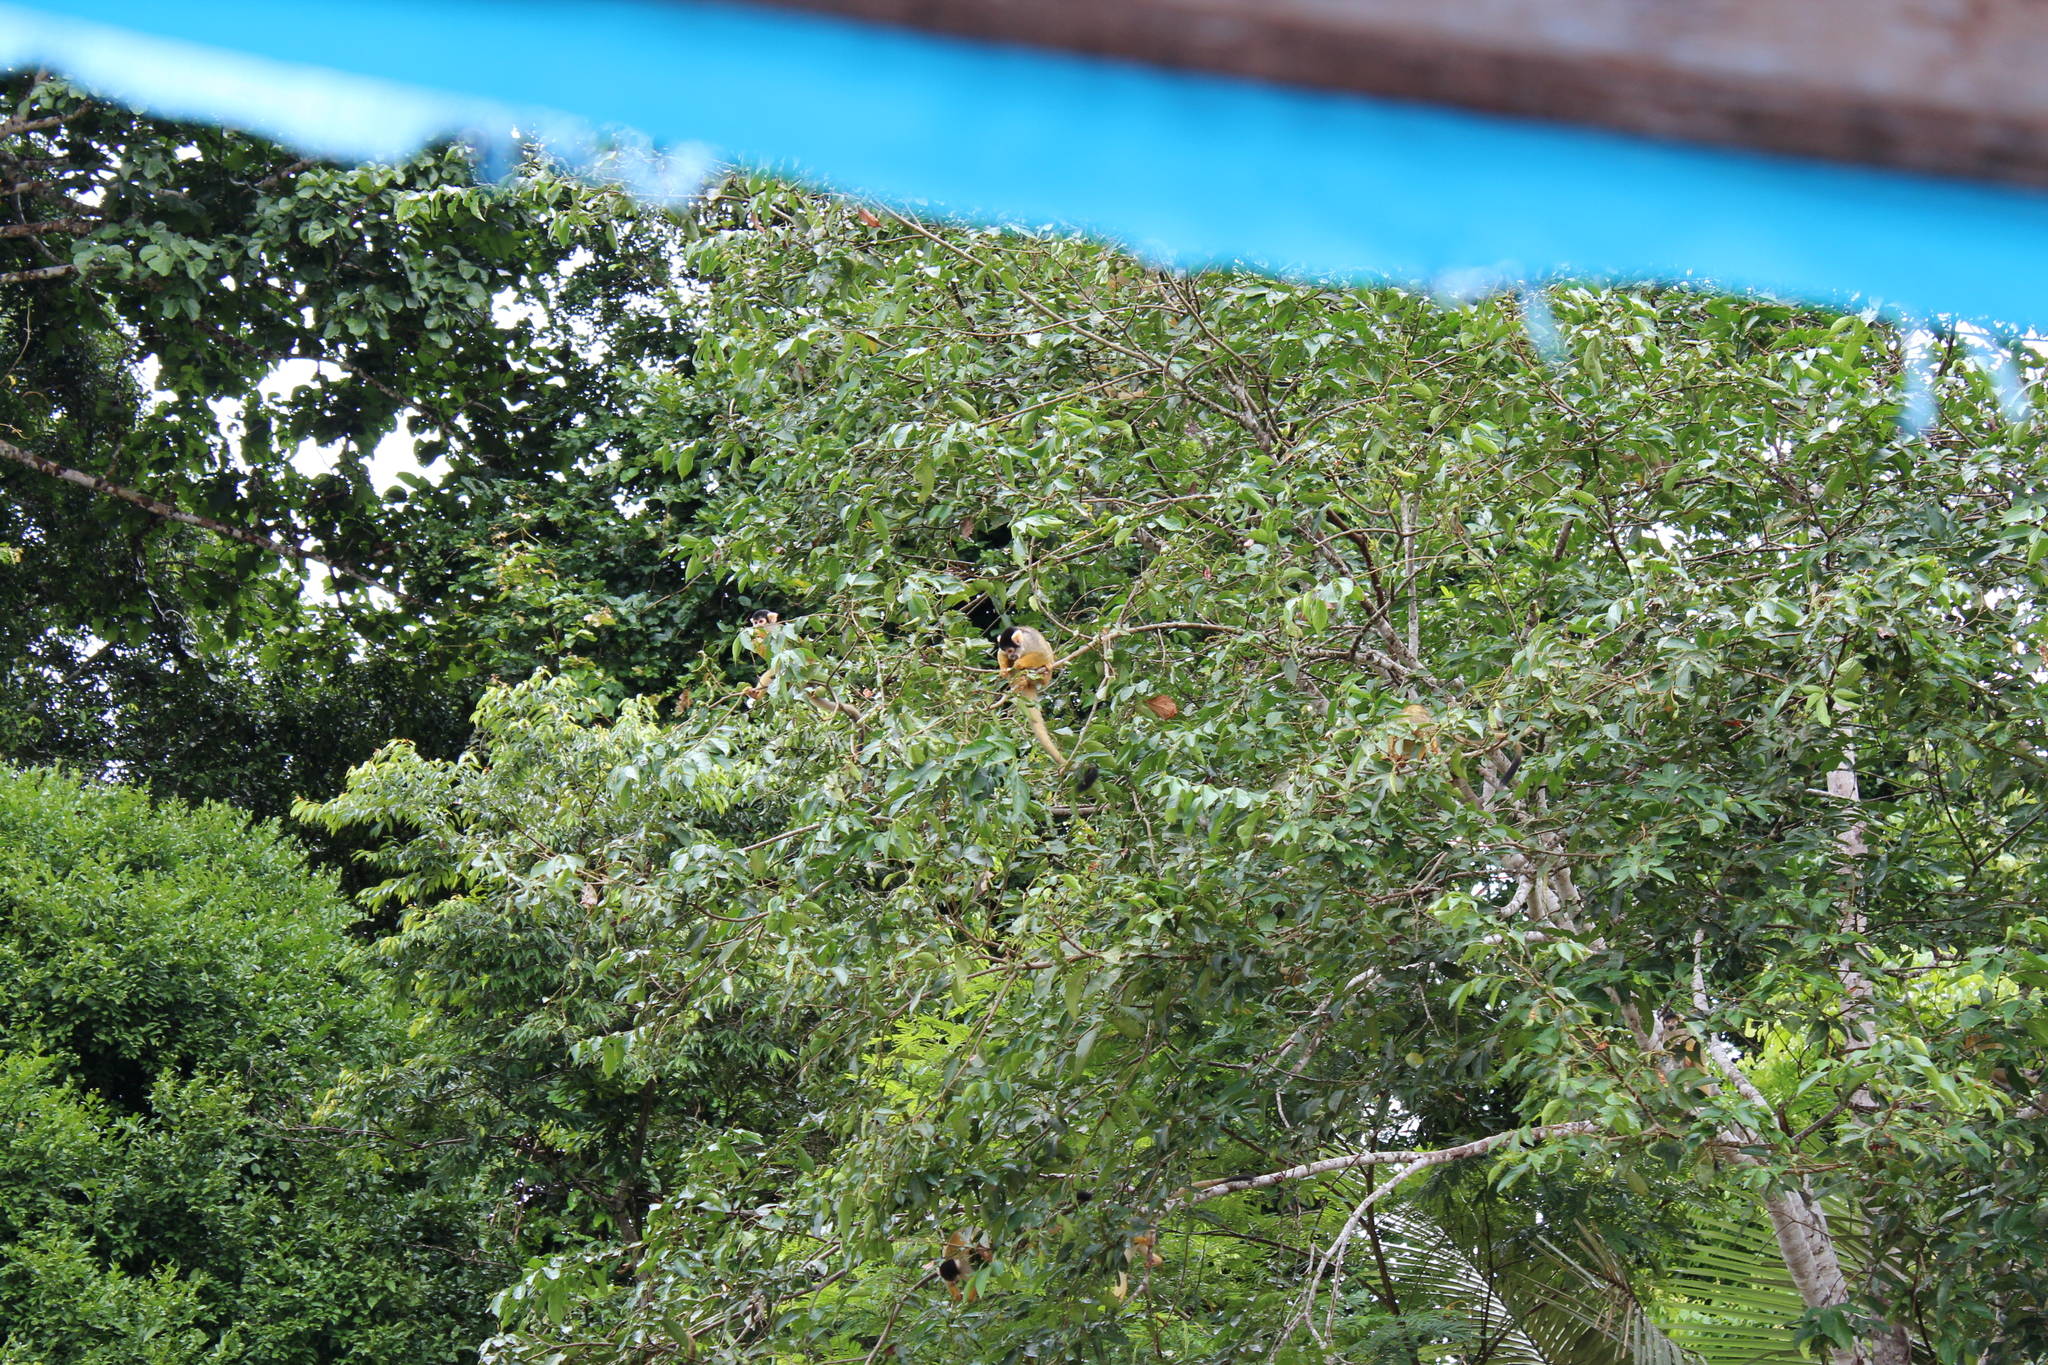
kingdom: Animalia
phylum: Chordata
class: Mammalia
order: Primates
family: Cebidae
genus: Saimiri
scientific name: Saimiri boliviensis
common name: Black-capped squirrel monkey
